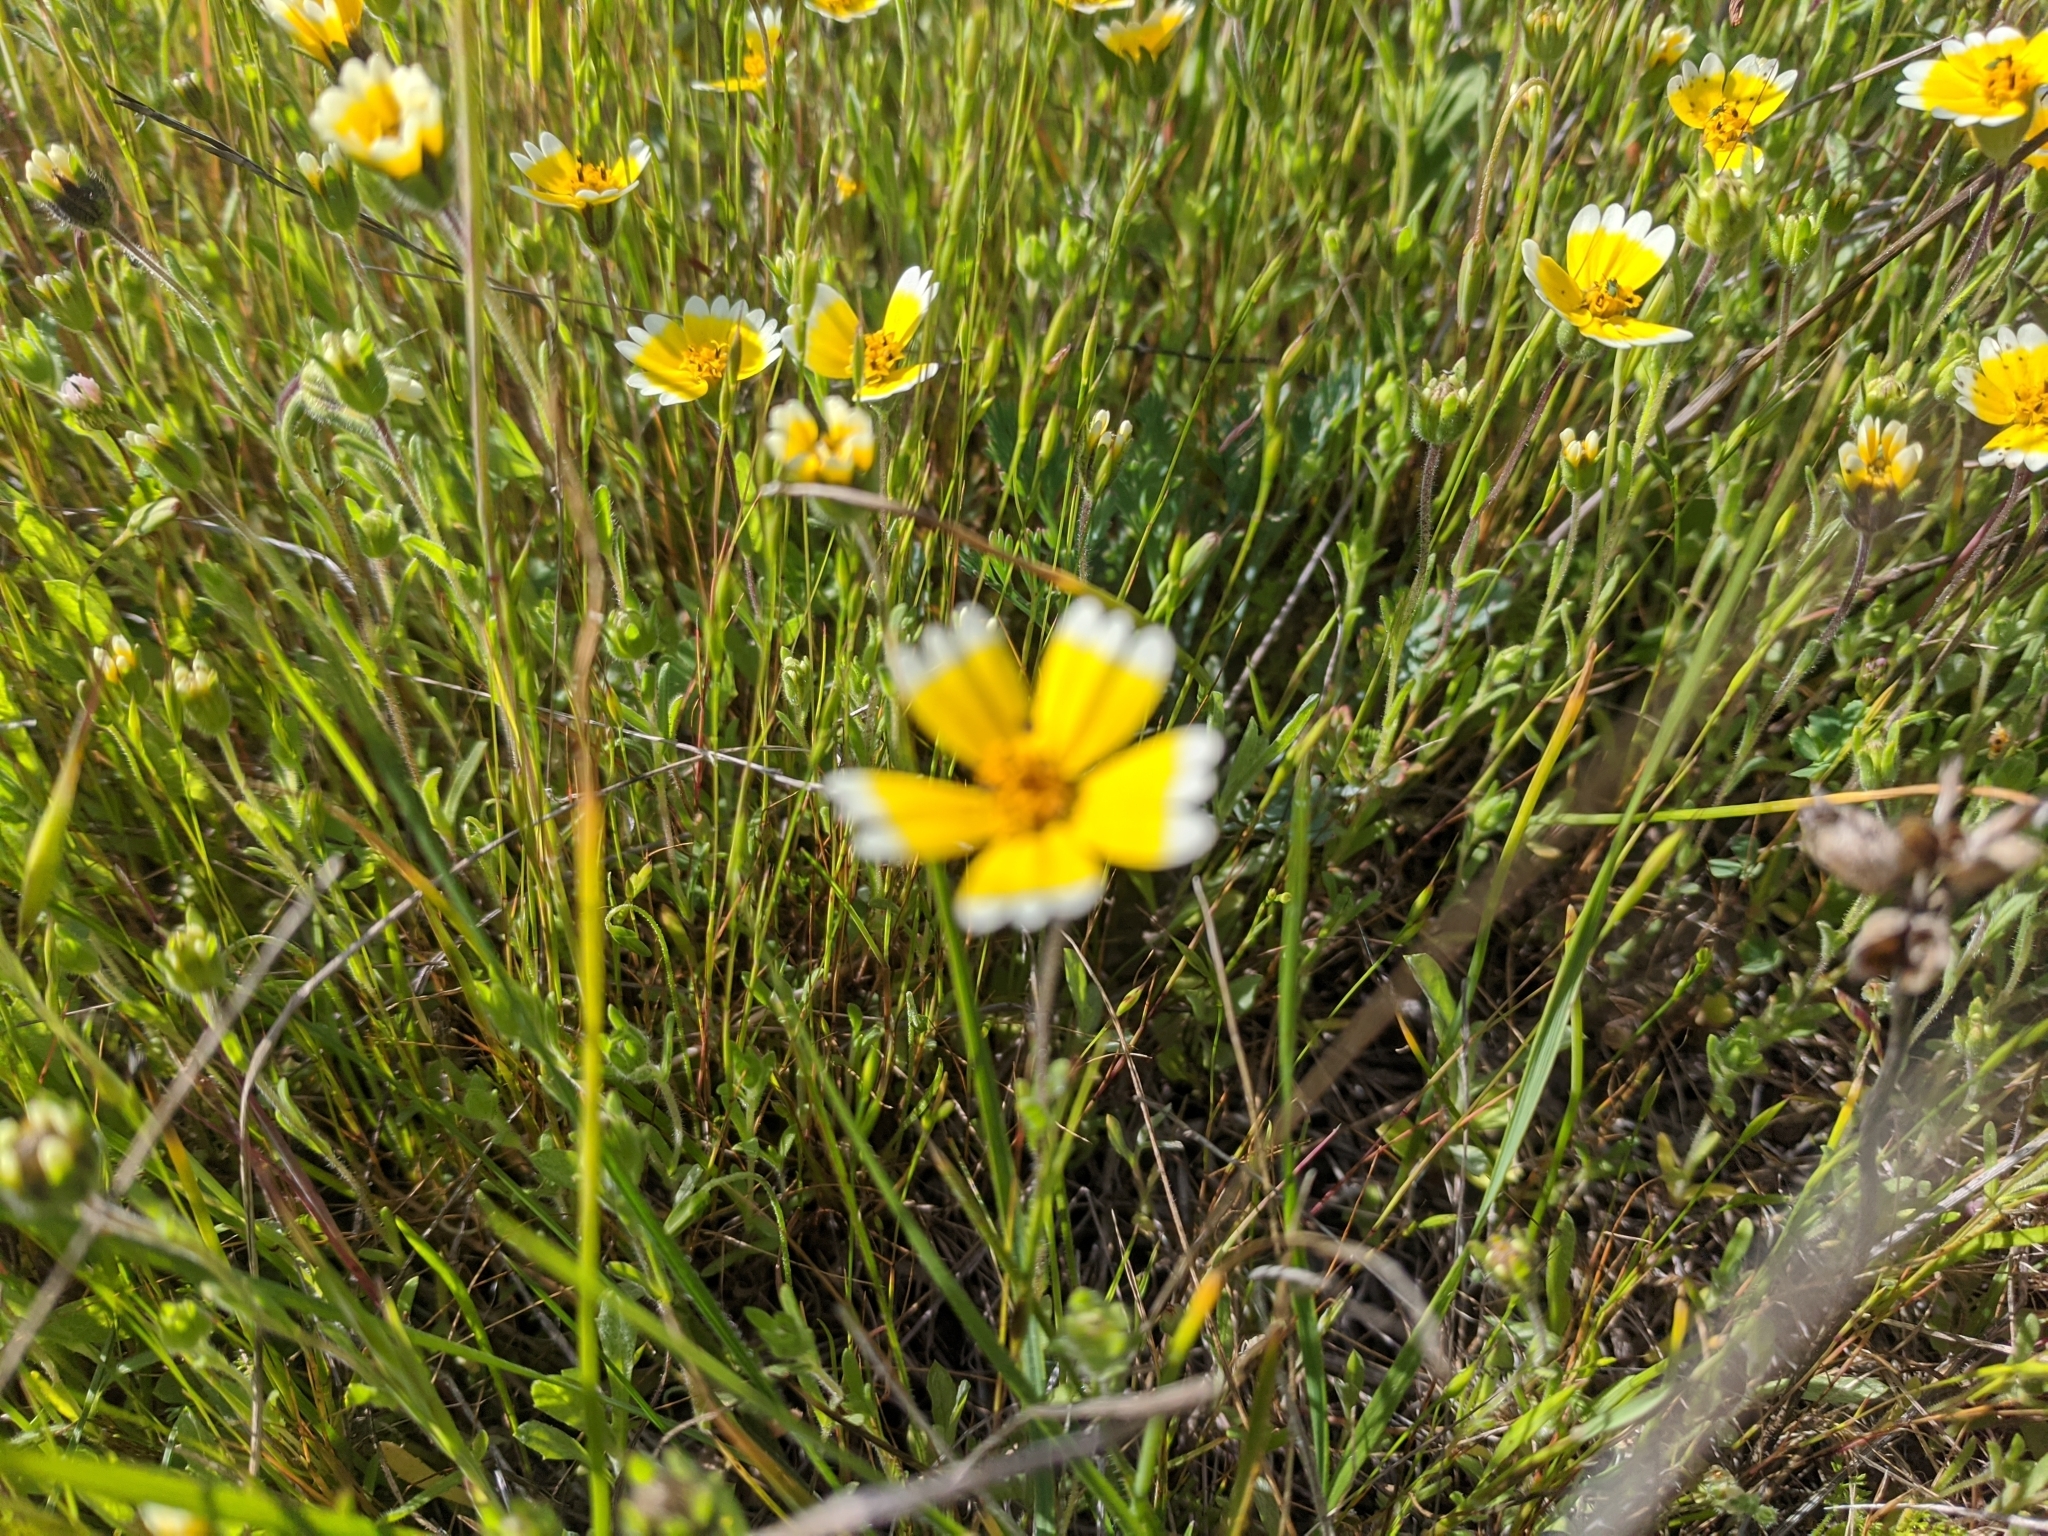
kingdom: Plantae
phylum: Tracheophyta
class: Magnoliopsida
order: Asterales
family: Asteraceae
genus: Layia
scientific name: Layia platyglossa
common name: Tidy-tips
